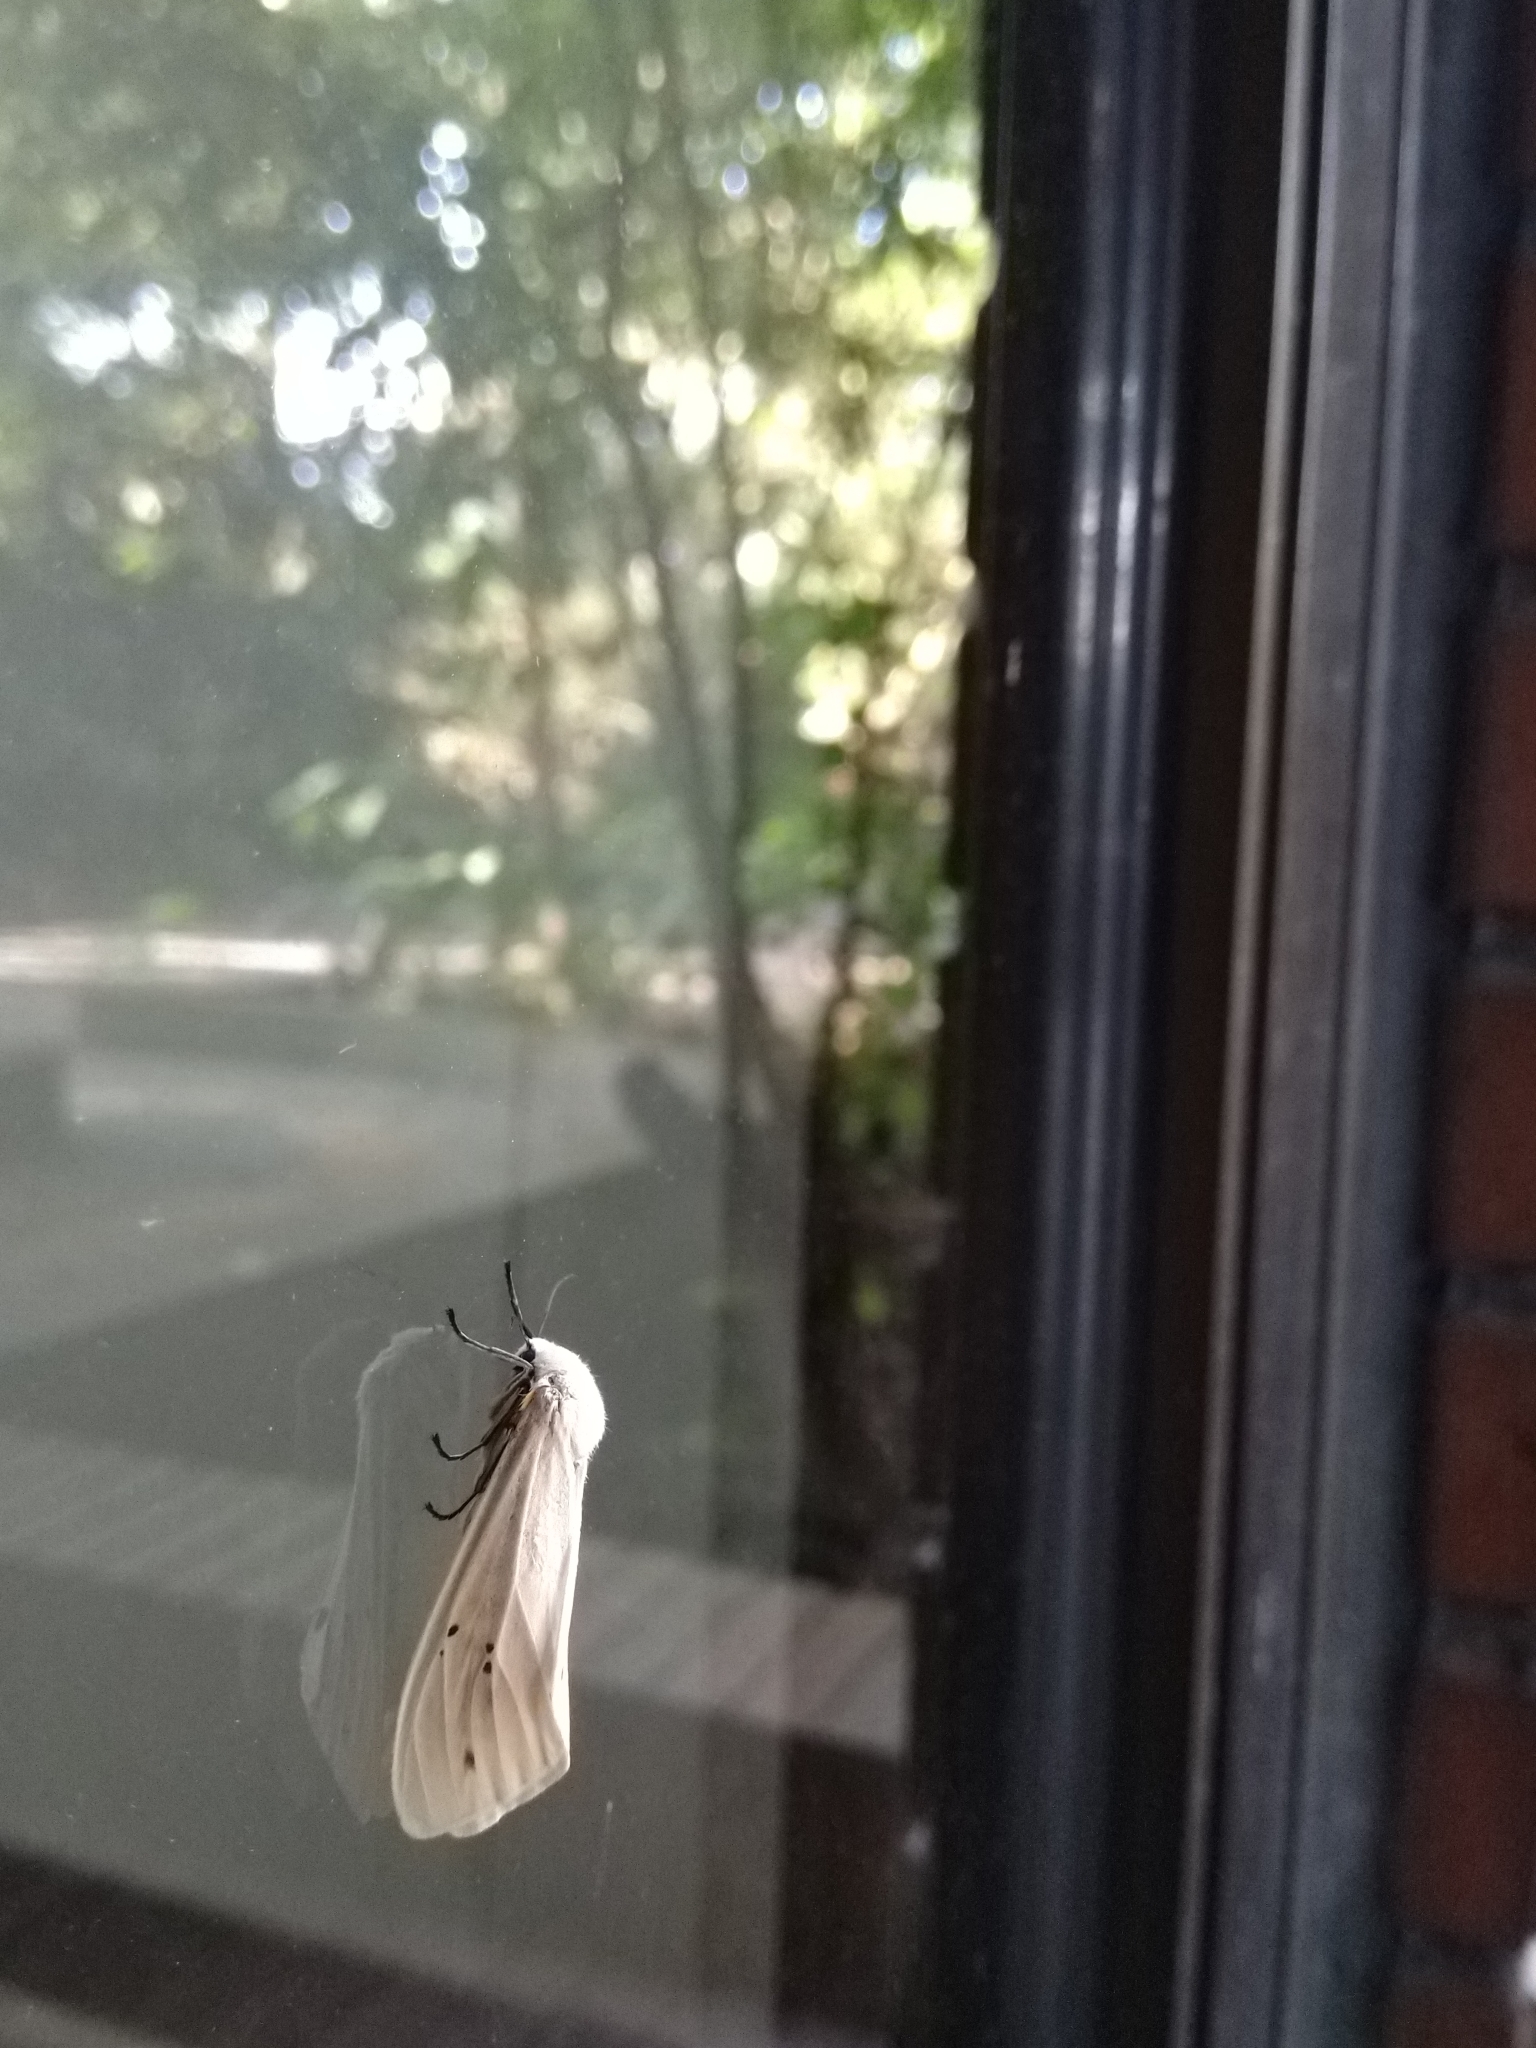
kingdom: Animalia
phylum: Arthropoda
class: Insecta
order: Lepidoptera
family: Erebidae
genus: Creatonotos
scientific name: Creatonotos transiens
